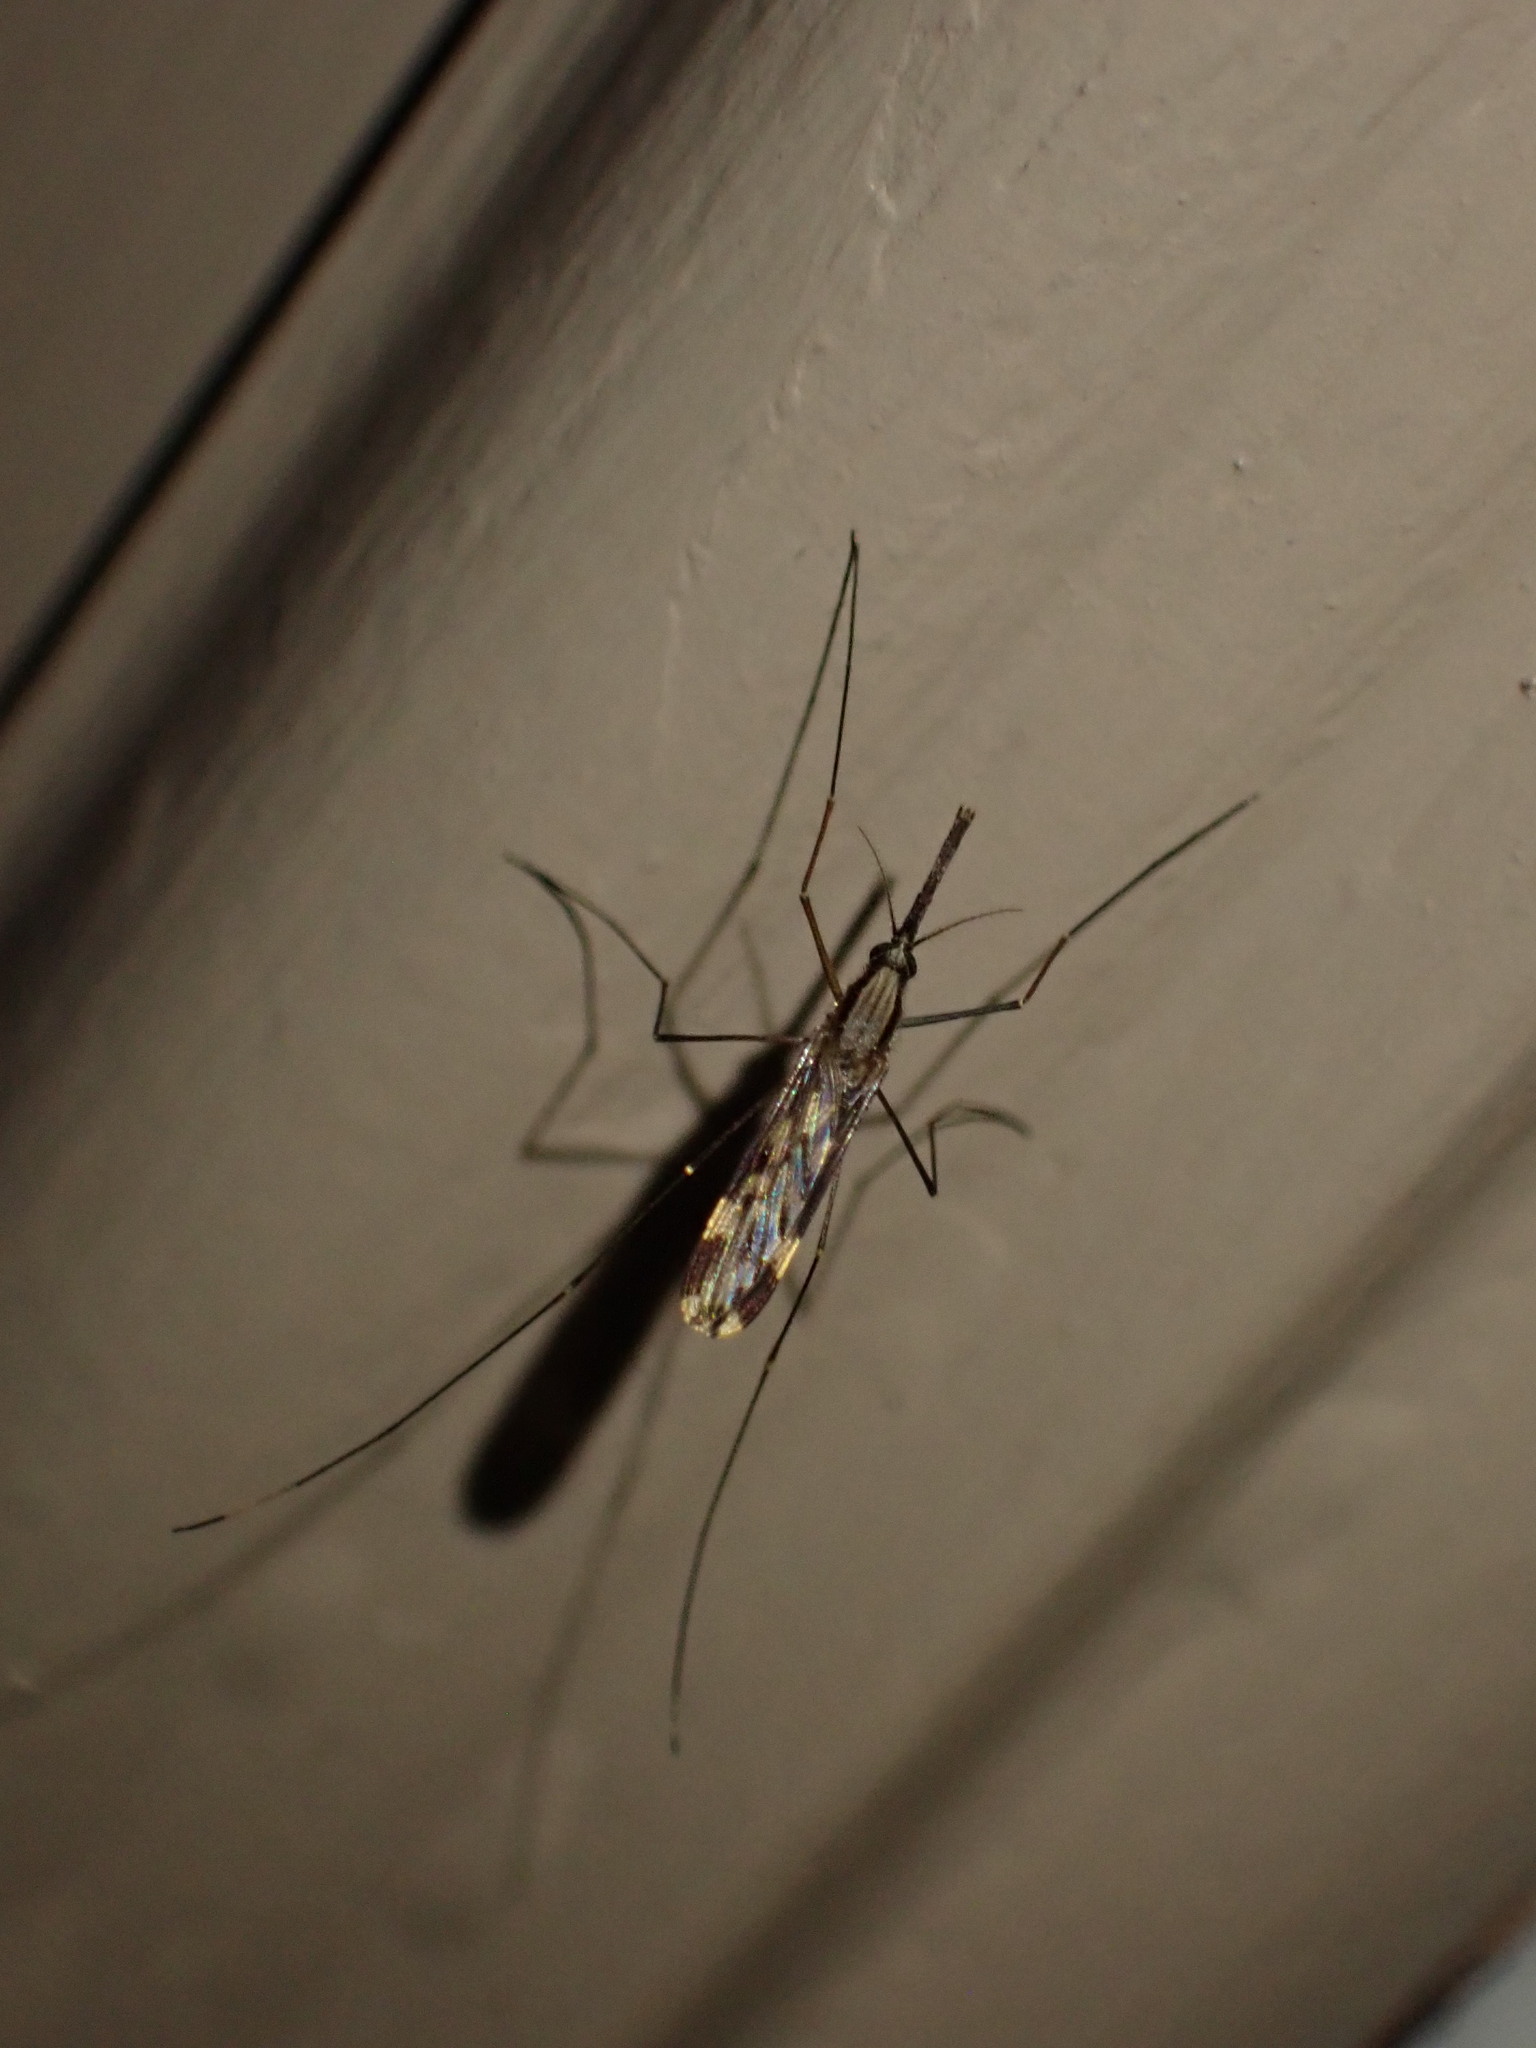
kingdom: Animalia
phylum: Arthropoda
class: Insecta
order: Diptera
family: Culicidae
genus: Anopheles
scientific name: Anopheles punctipennis
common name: Woodland malaria mosquito
